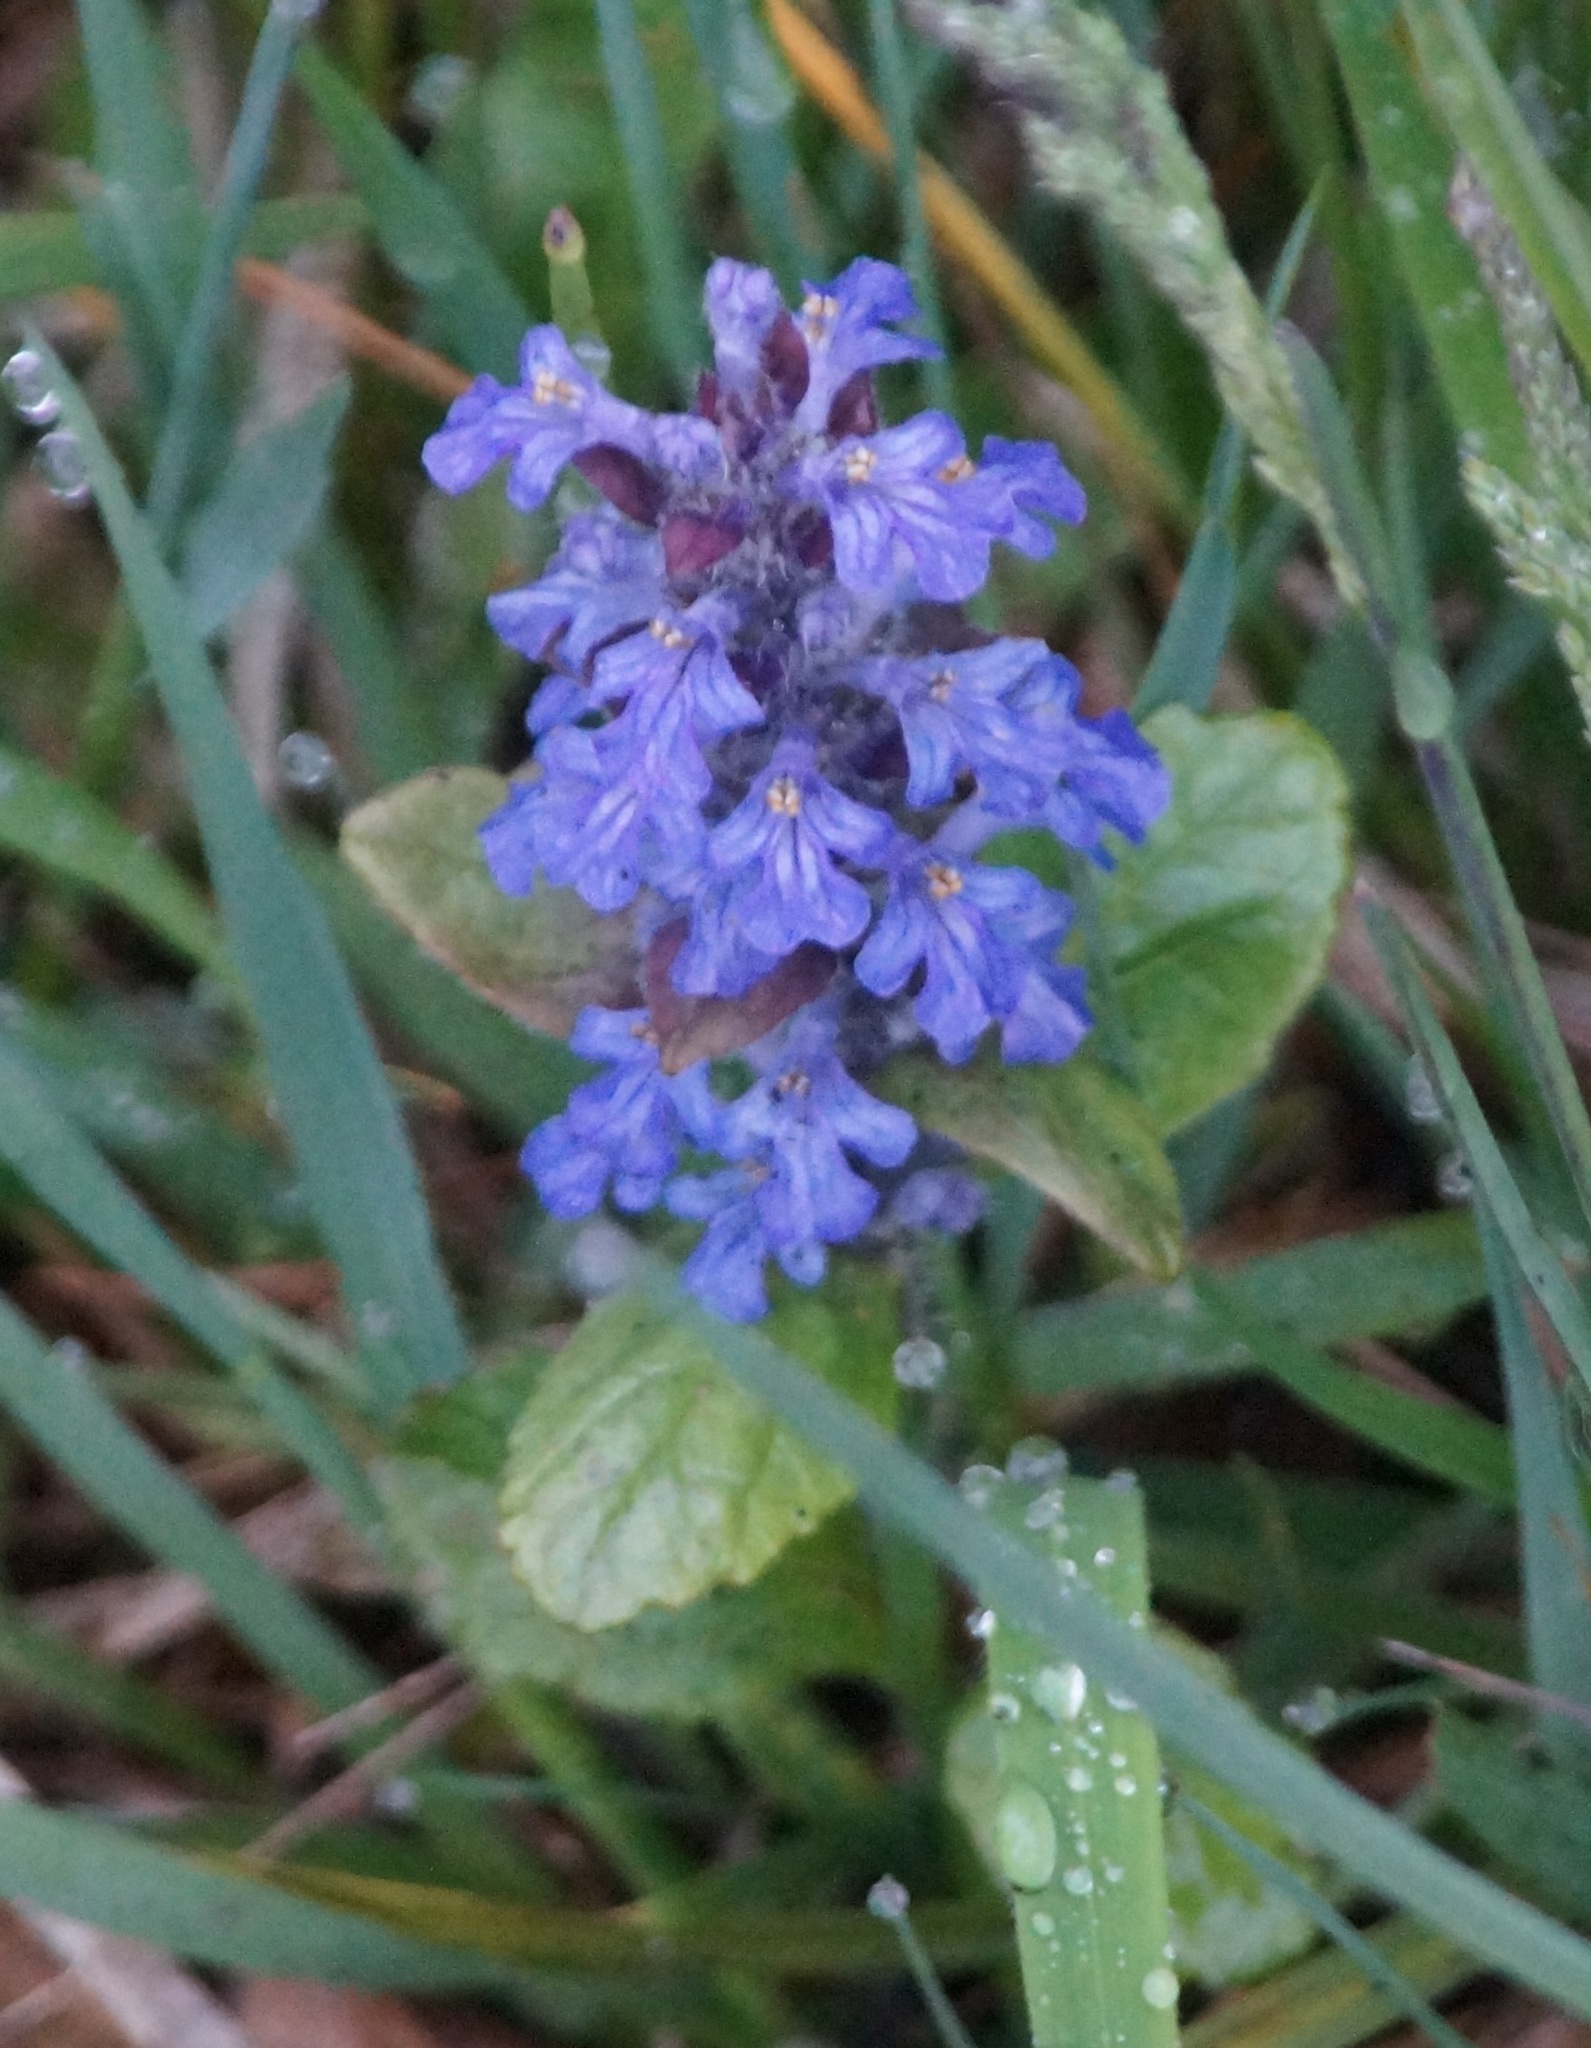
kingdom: Plantae
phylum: Tracheophyta
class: Magnoliopsida
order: Lamiales
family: Lamiaceae
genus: Ajuga
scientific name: Ajuga reptans
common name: Bugle
